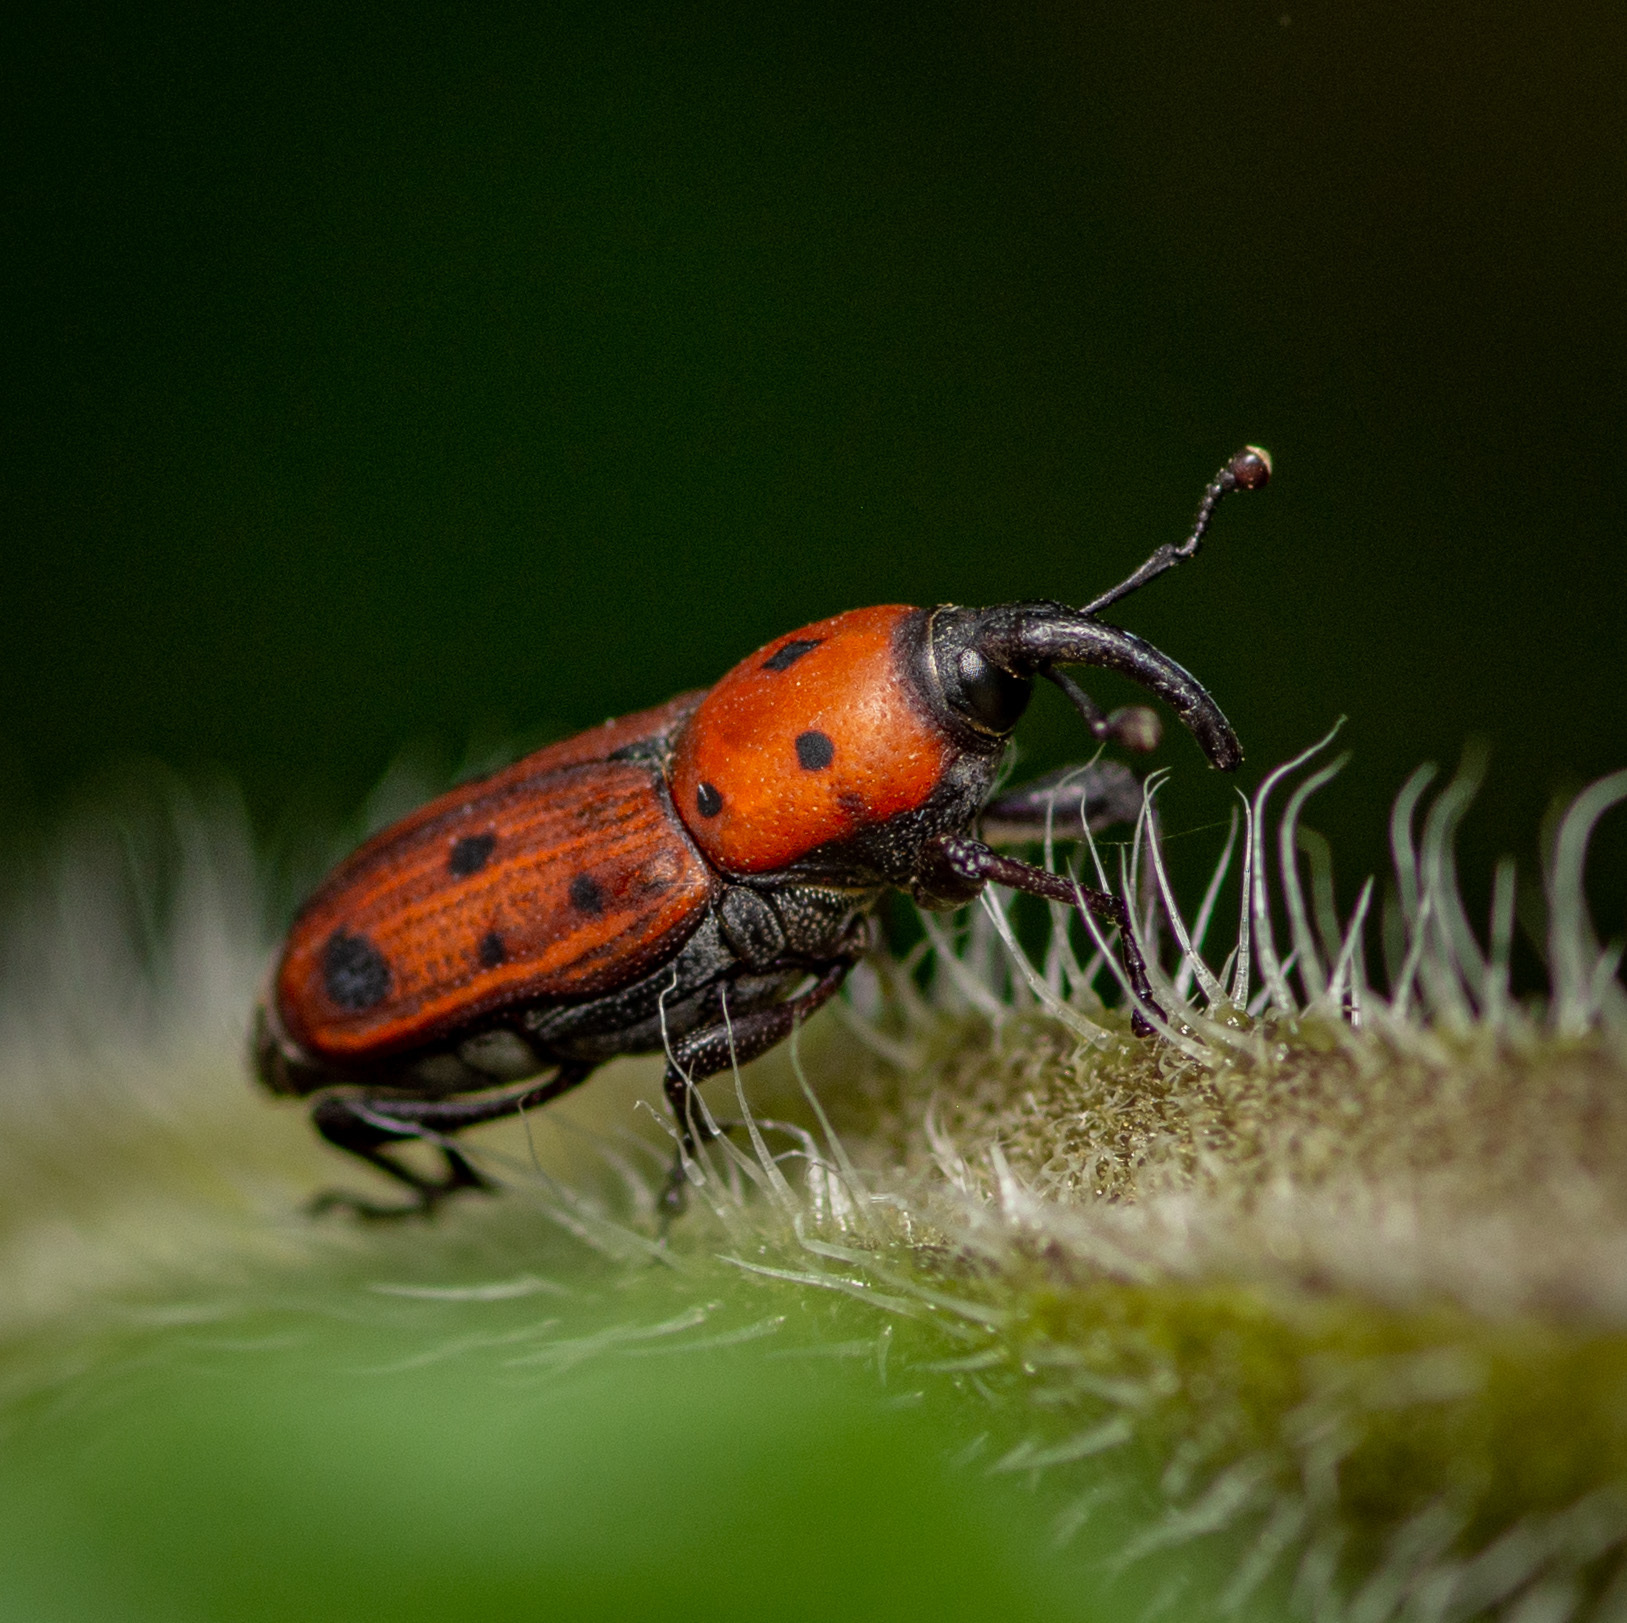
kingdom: Animalia
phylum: Arthropoda
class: Insecta
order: Coleoptera
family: Dryophthoridae
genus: Rhodobaenus
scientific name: Rhodobaenus tredecimpunctatus
